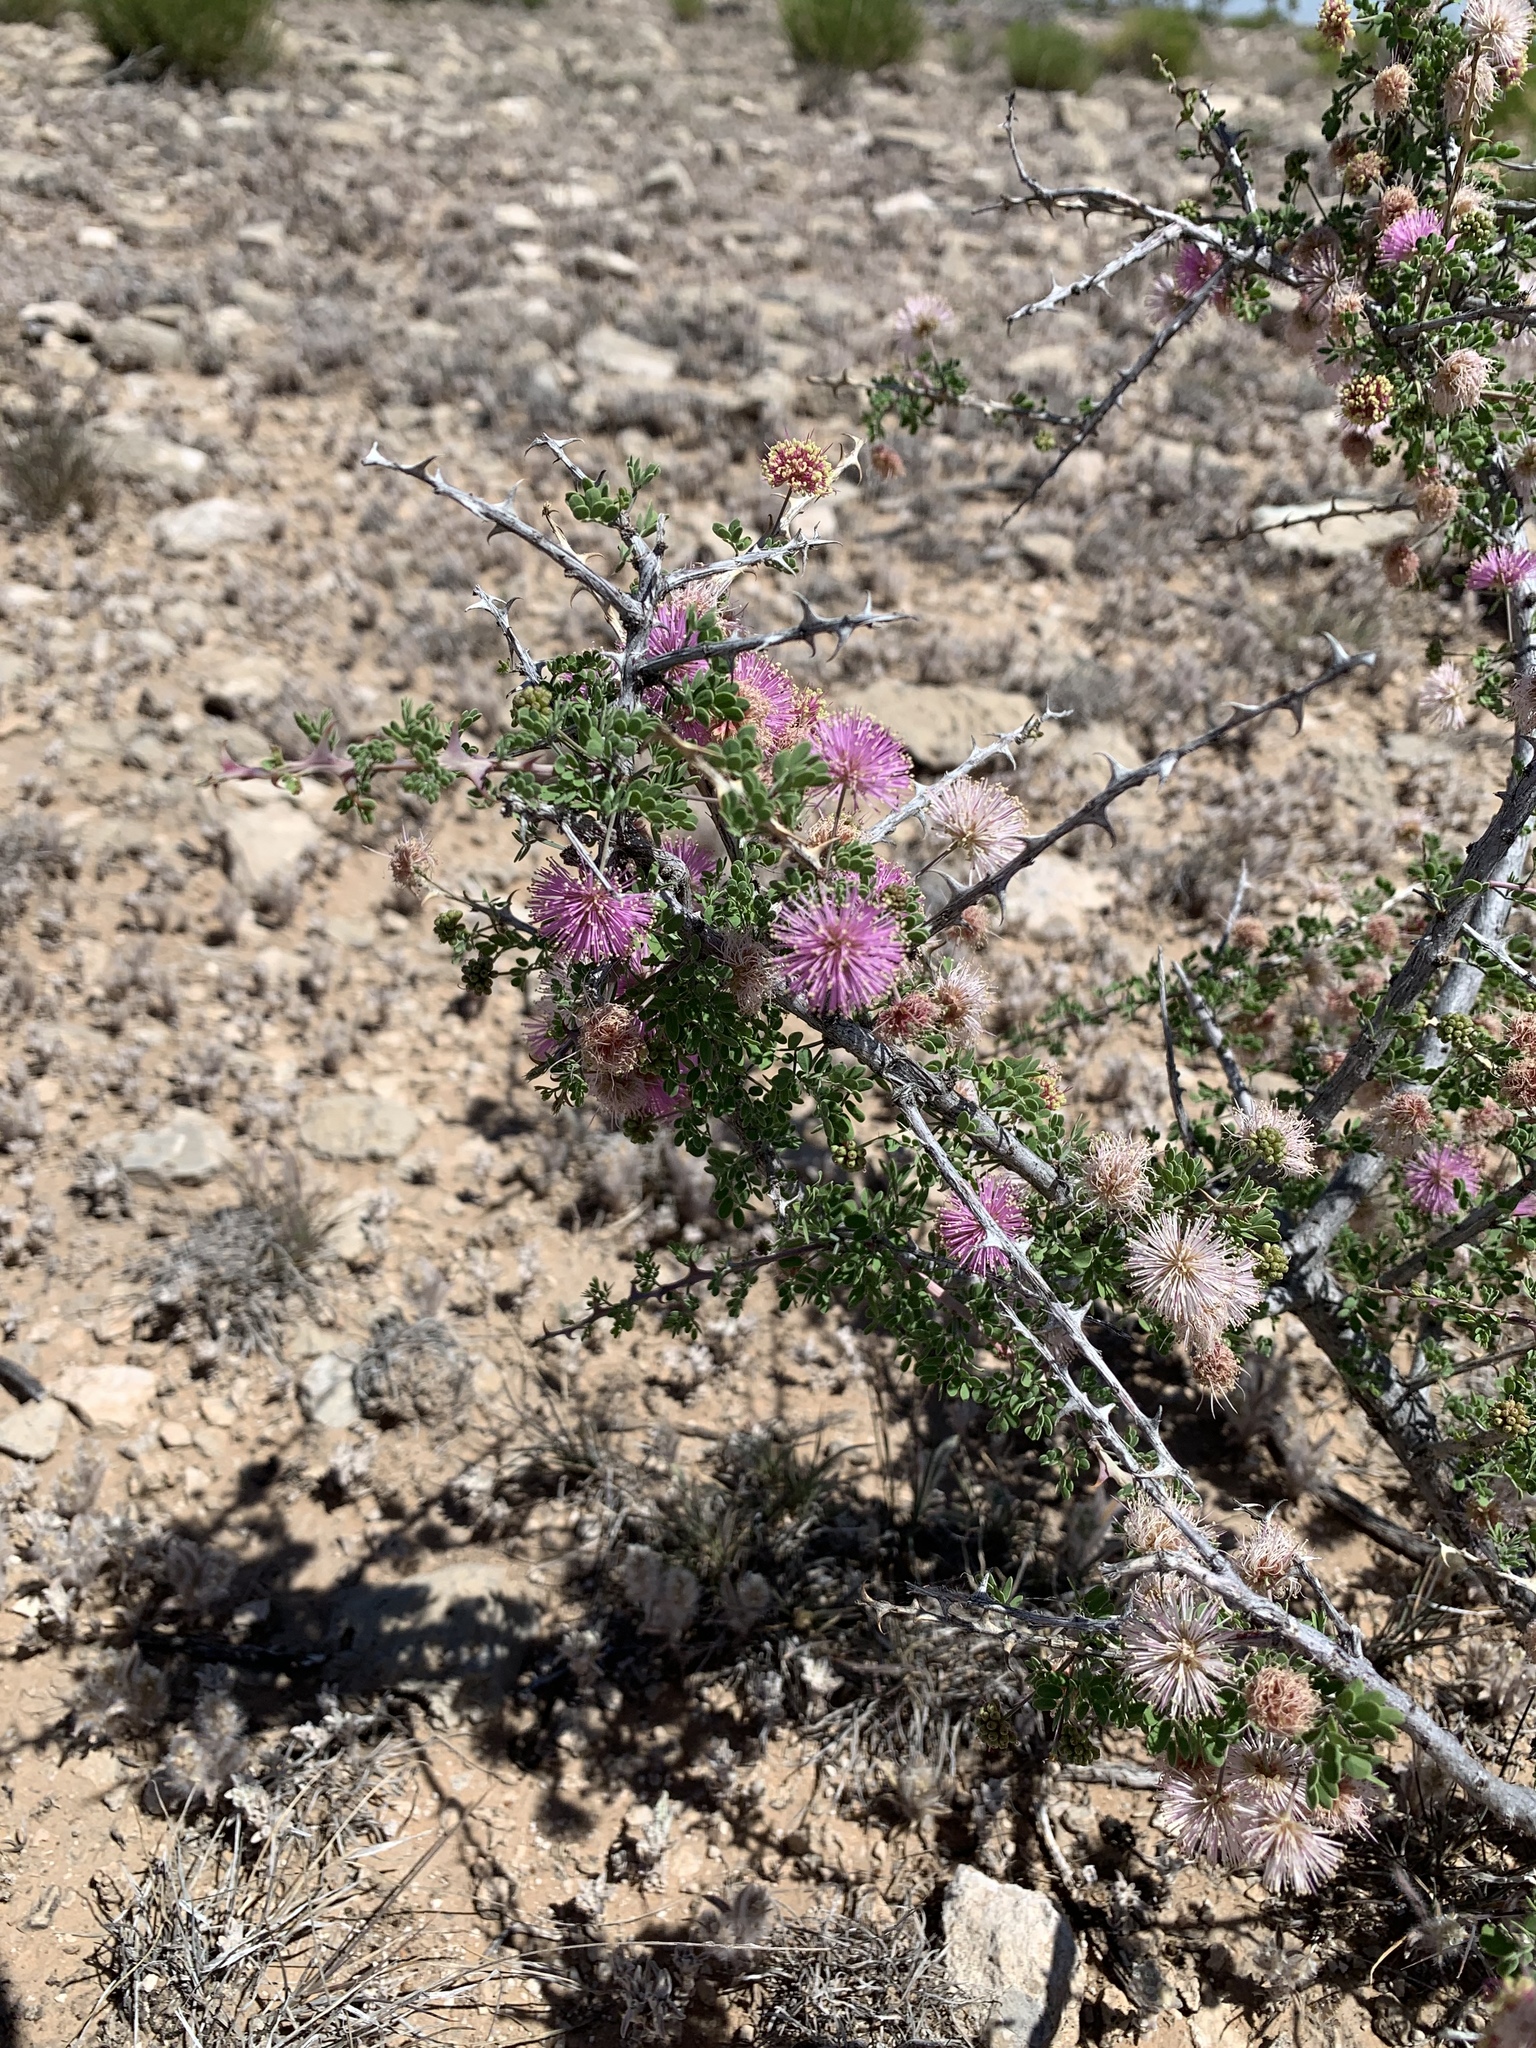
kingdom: Plantae
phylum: Tracheophyta
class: Magnoliopsida
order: Fabales
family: Fabaceae
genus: Mimosa
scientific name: Mimosa borealis
